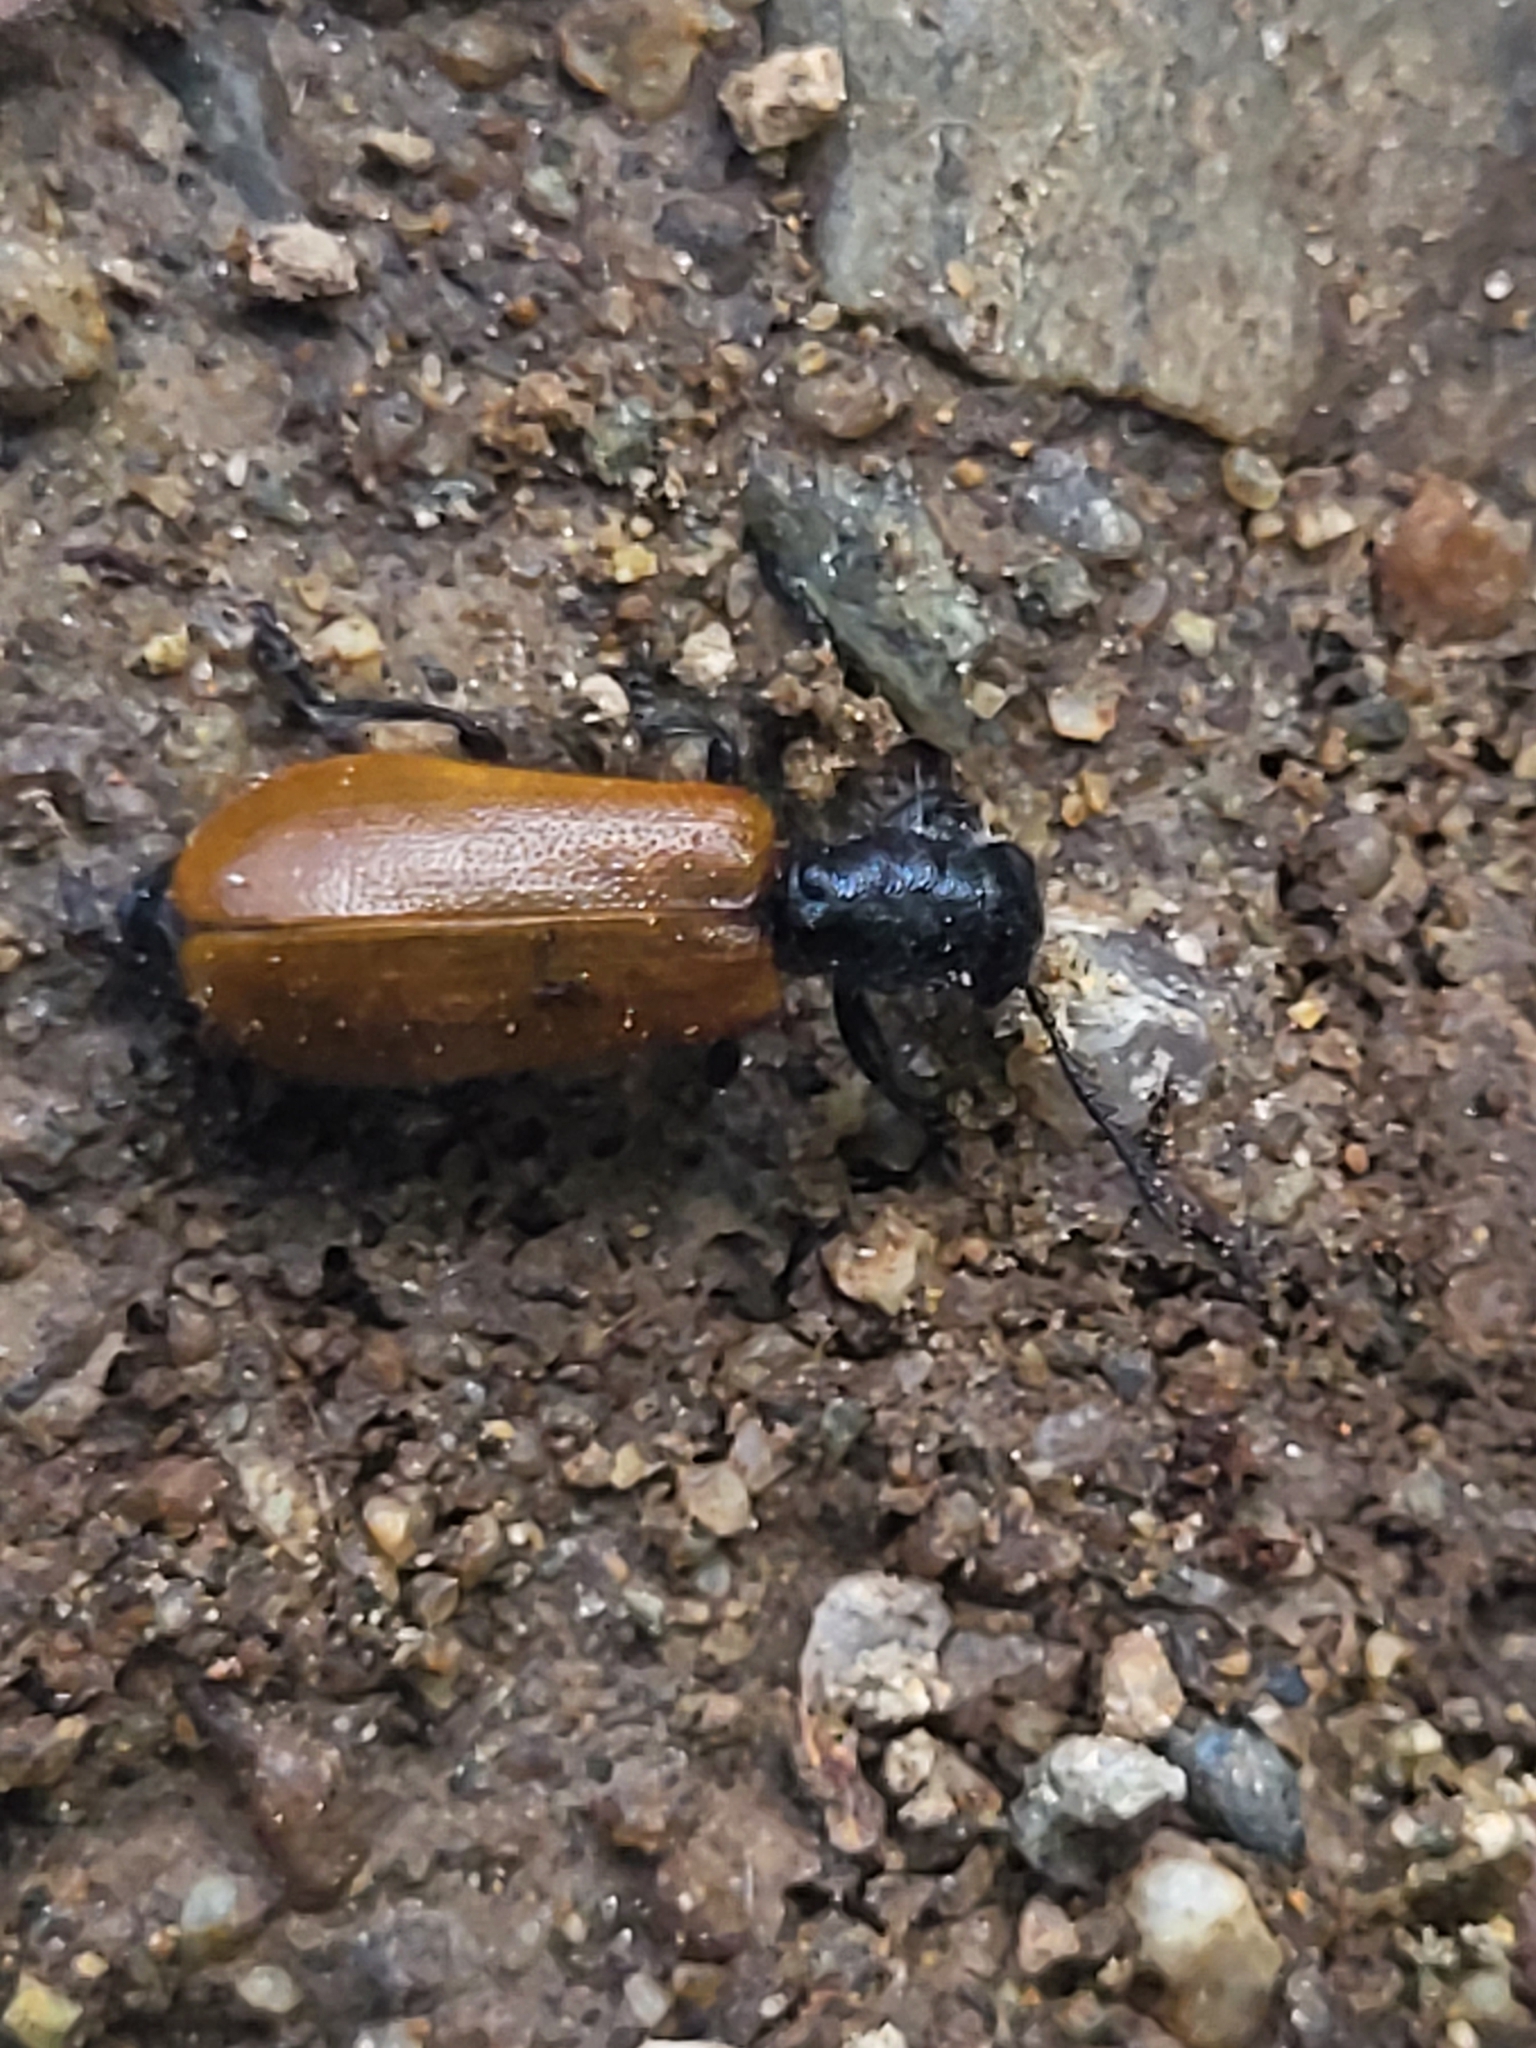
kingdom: Animalia
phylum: Arthropoda
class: Insecta
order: Coleoptera
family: Cleridae
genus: Tillus
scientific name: Tillus pallidipennis
